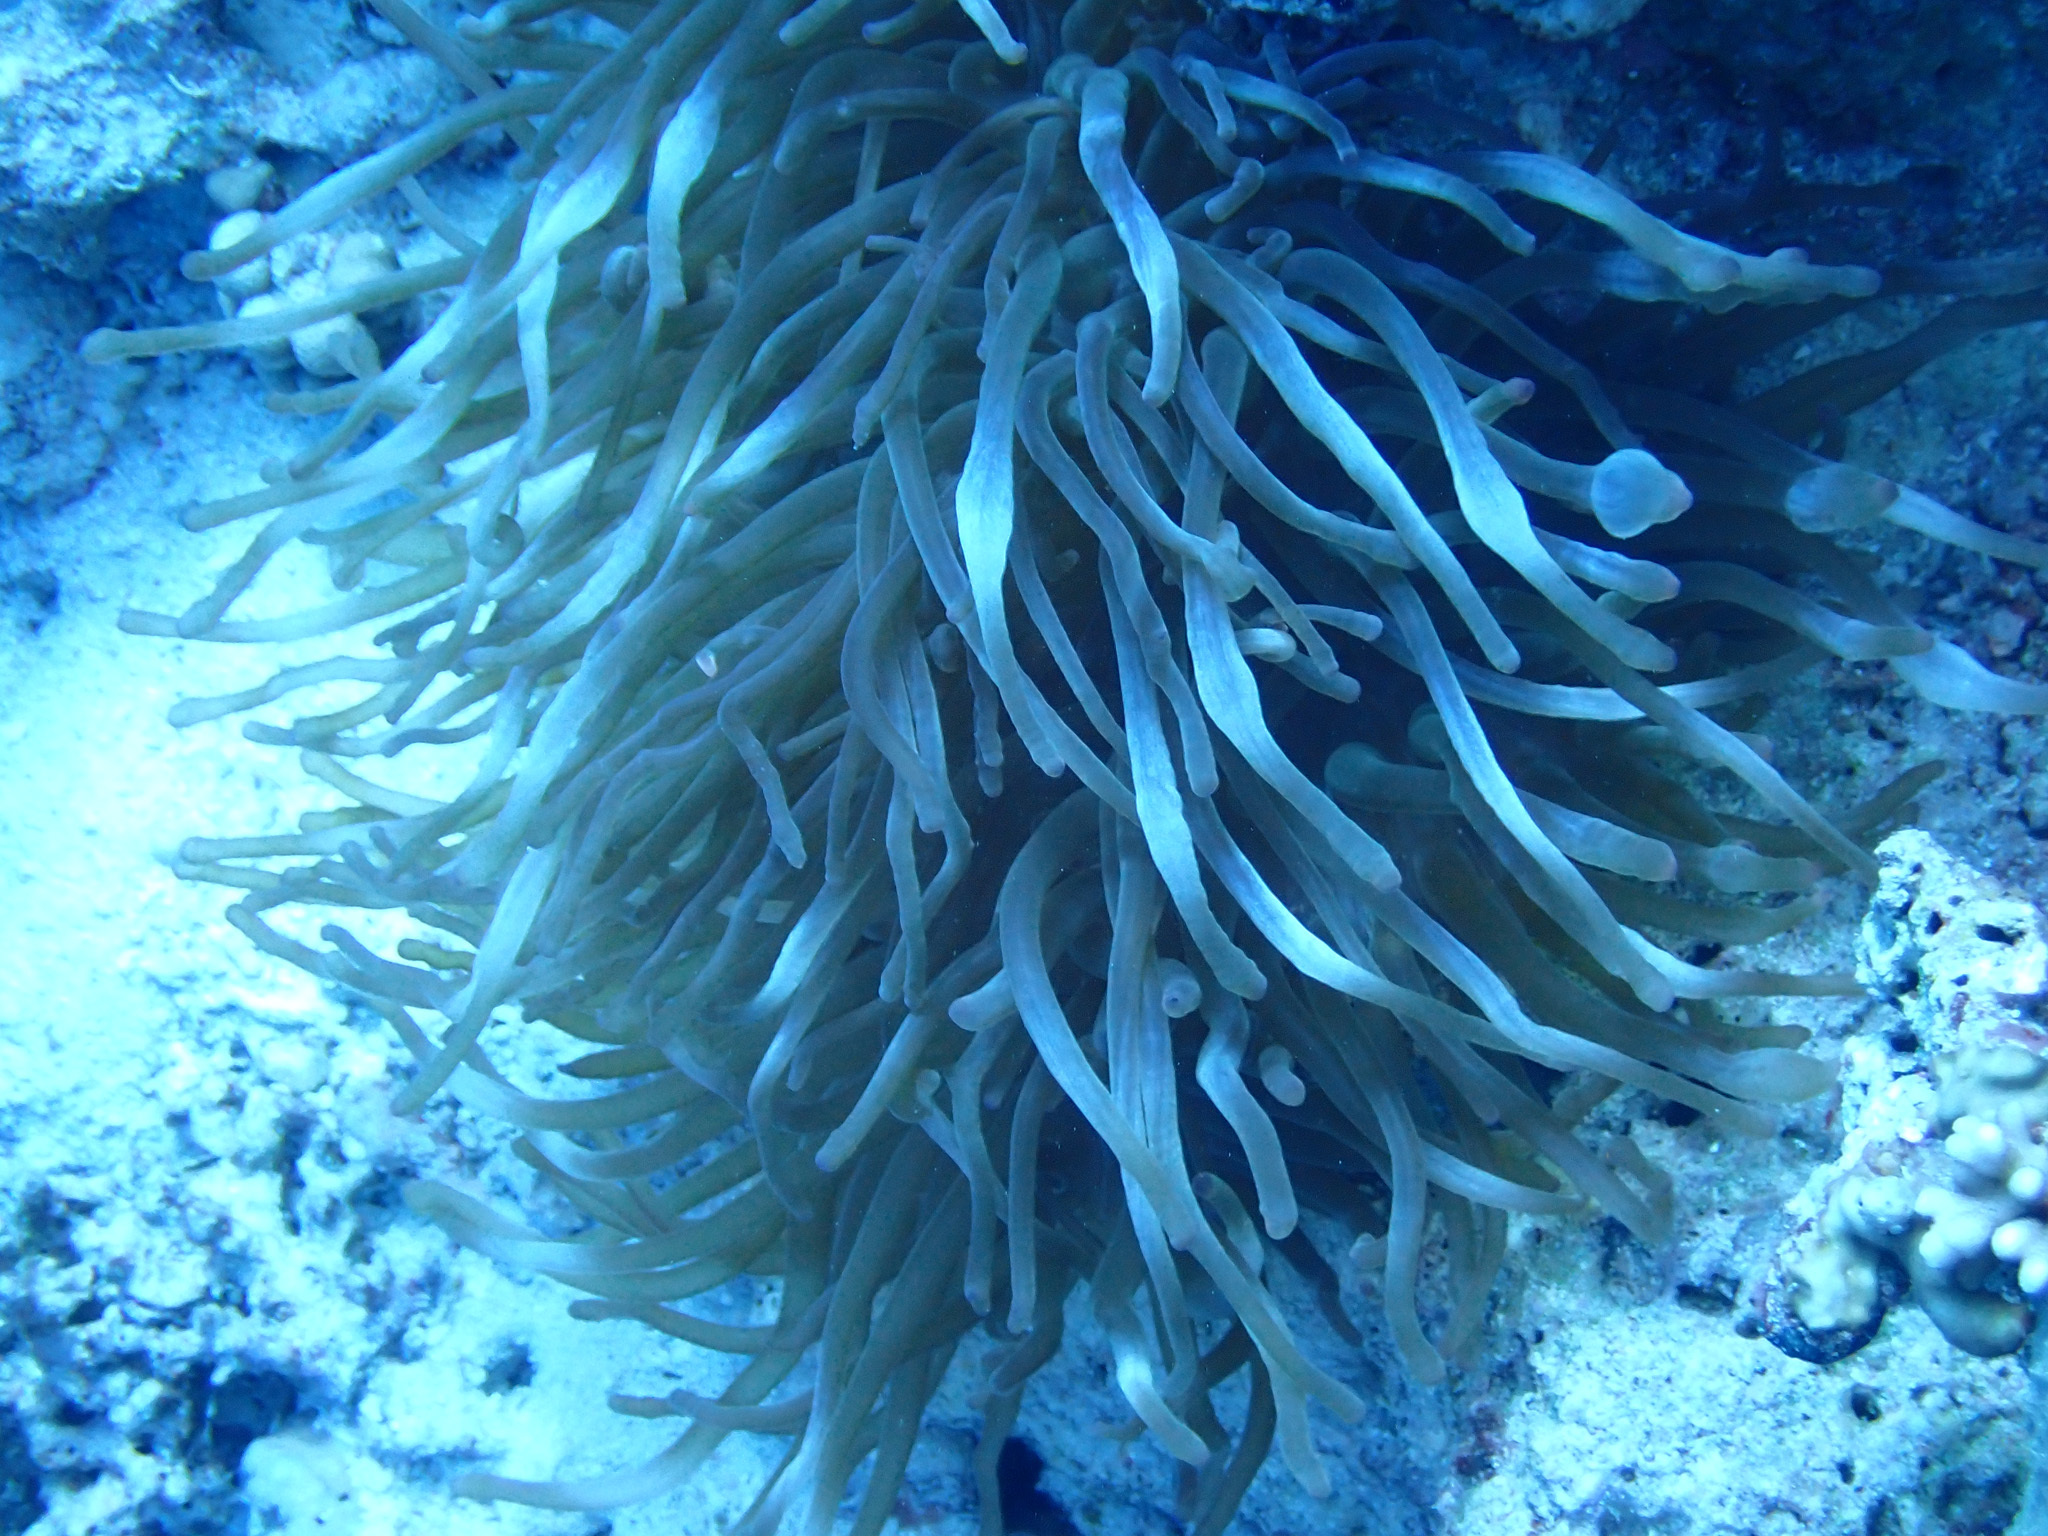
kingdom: Animalia
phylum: Cnidaria
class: Anthozoa
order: Actiniaria
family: Actiniidae
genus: Entacmaea
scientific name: Entacmaea quadricolor
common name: Bulb tentacle sea anemone
